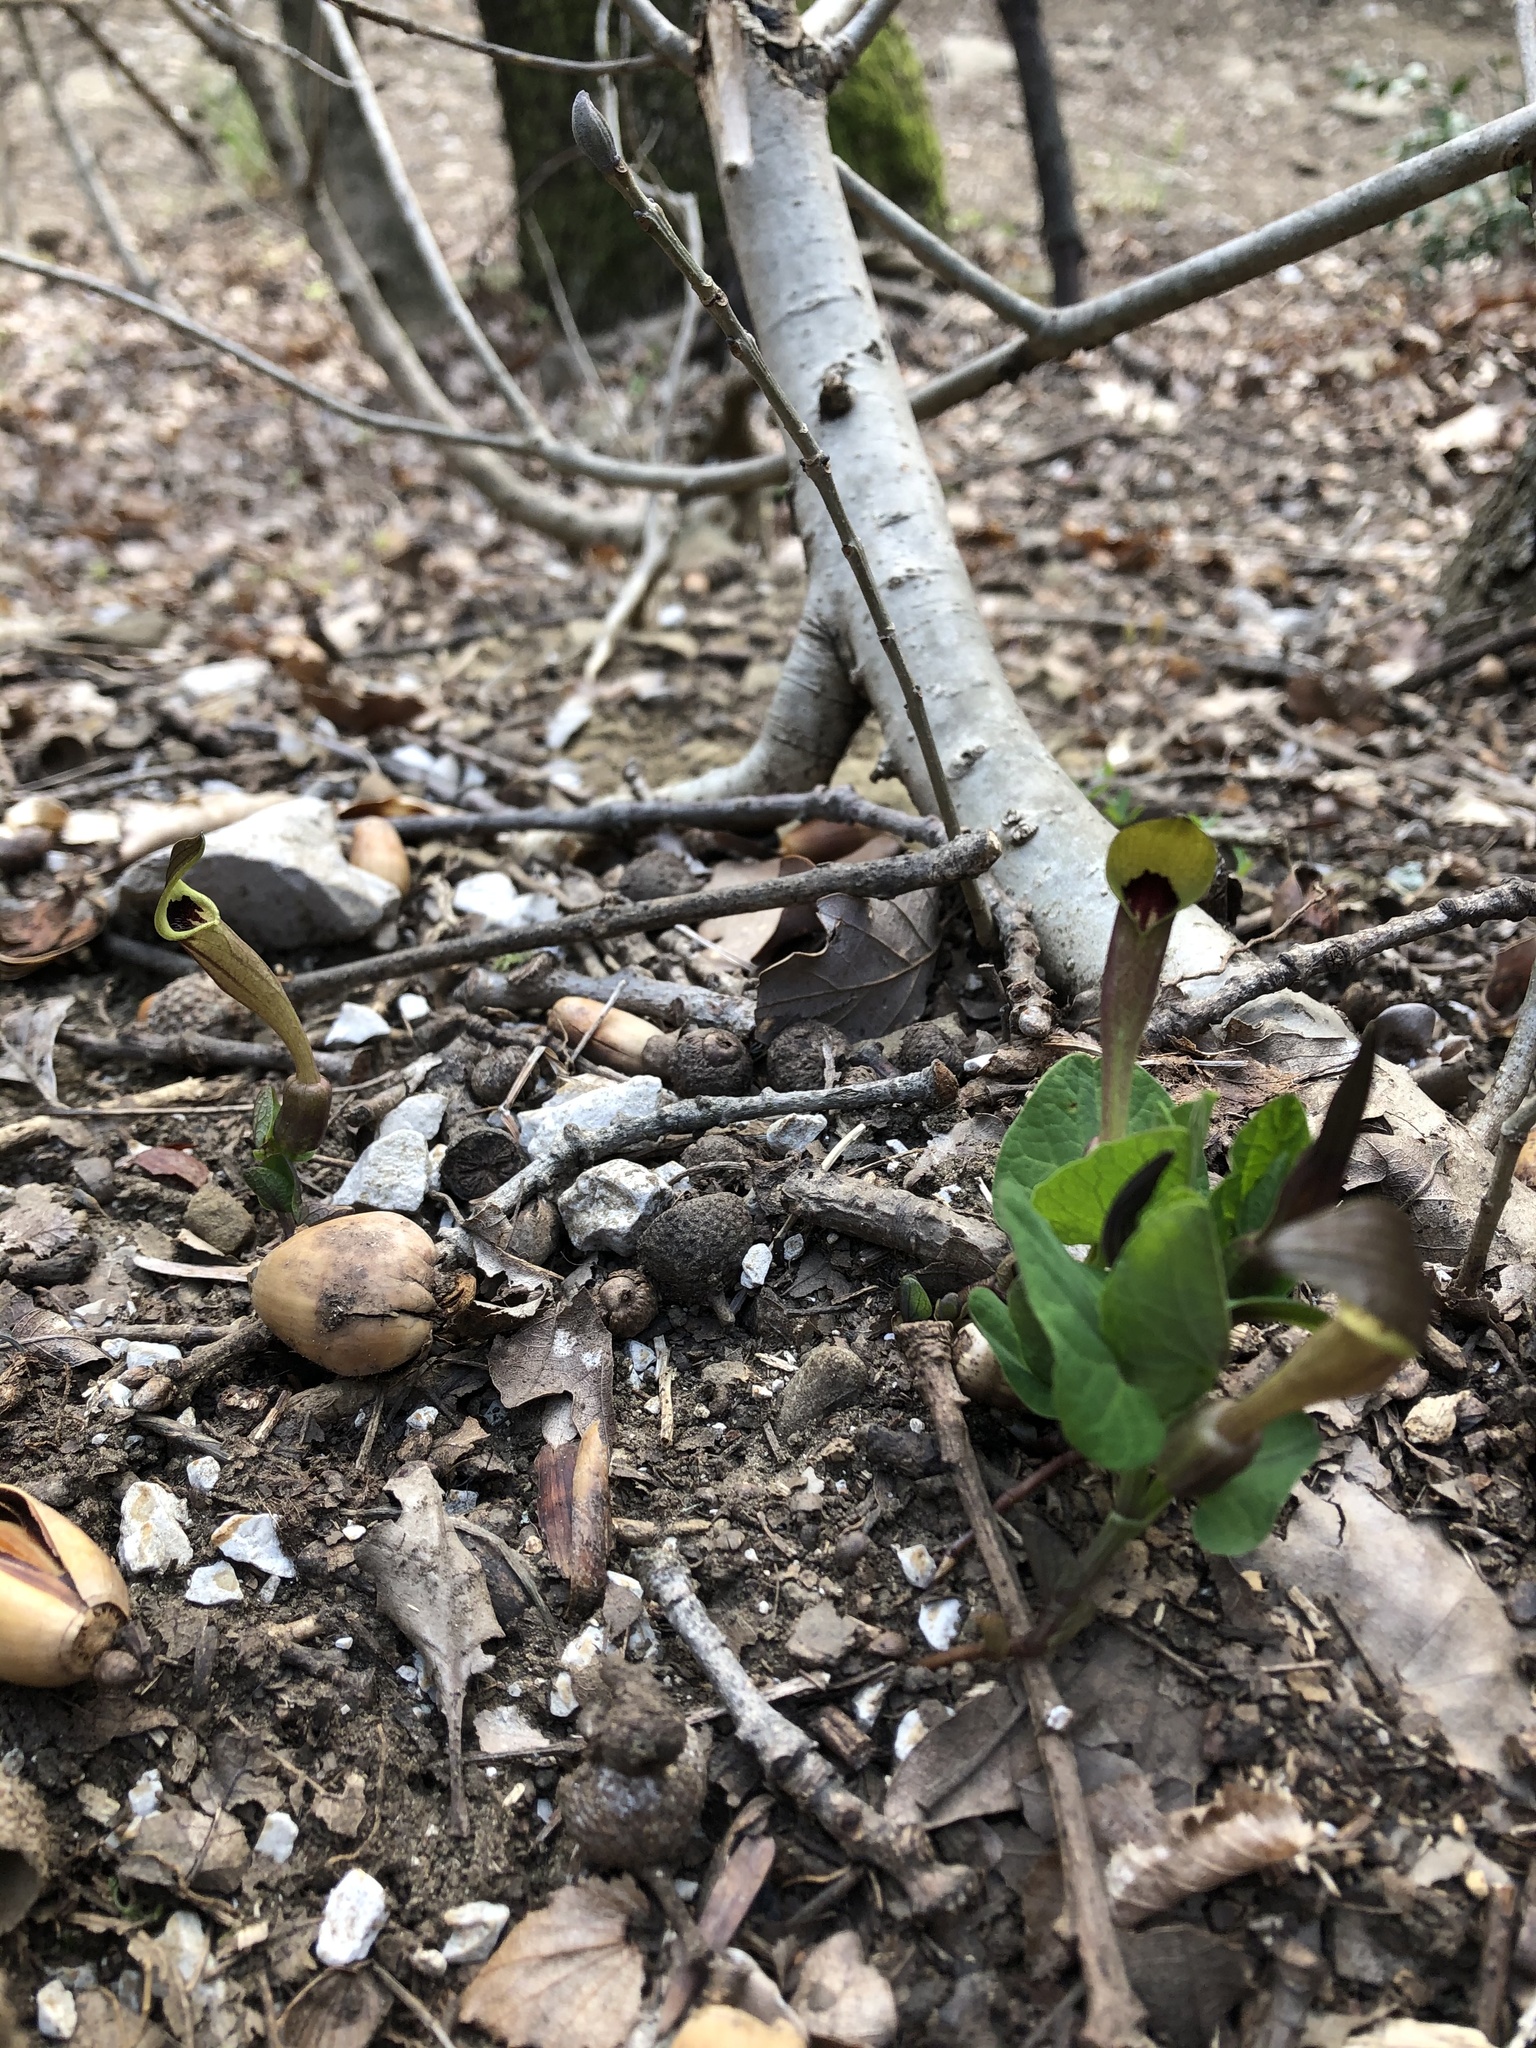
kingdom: Plantae
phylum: Tracheophyta
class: Magnoliopsida
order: Piperales
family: Aristolochiaceae
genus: Aristolochia
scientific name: Aristolochia lutea
